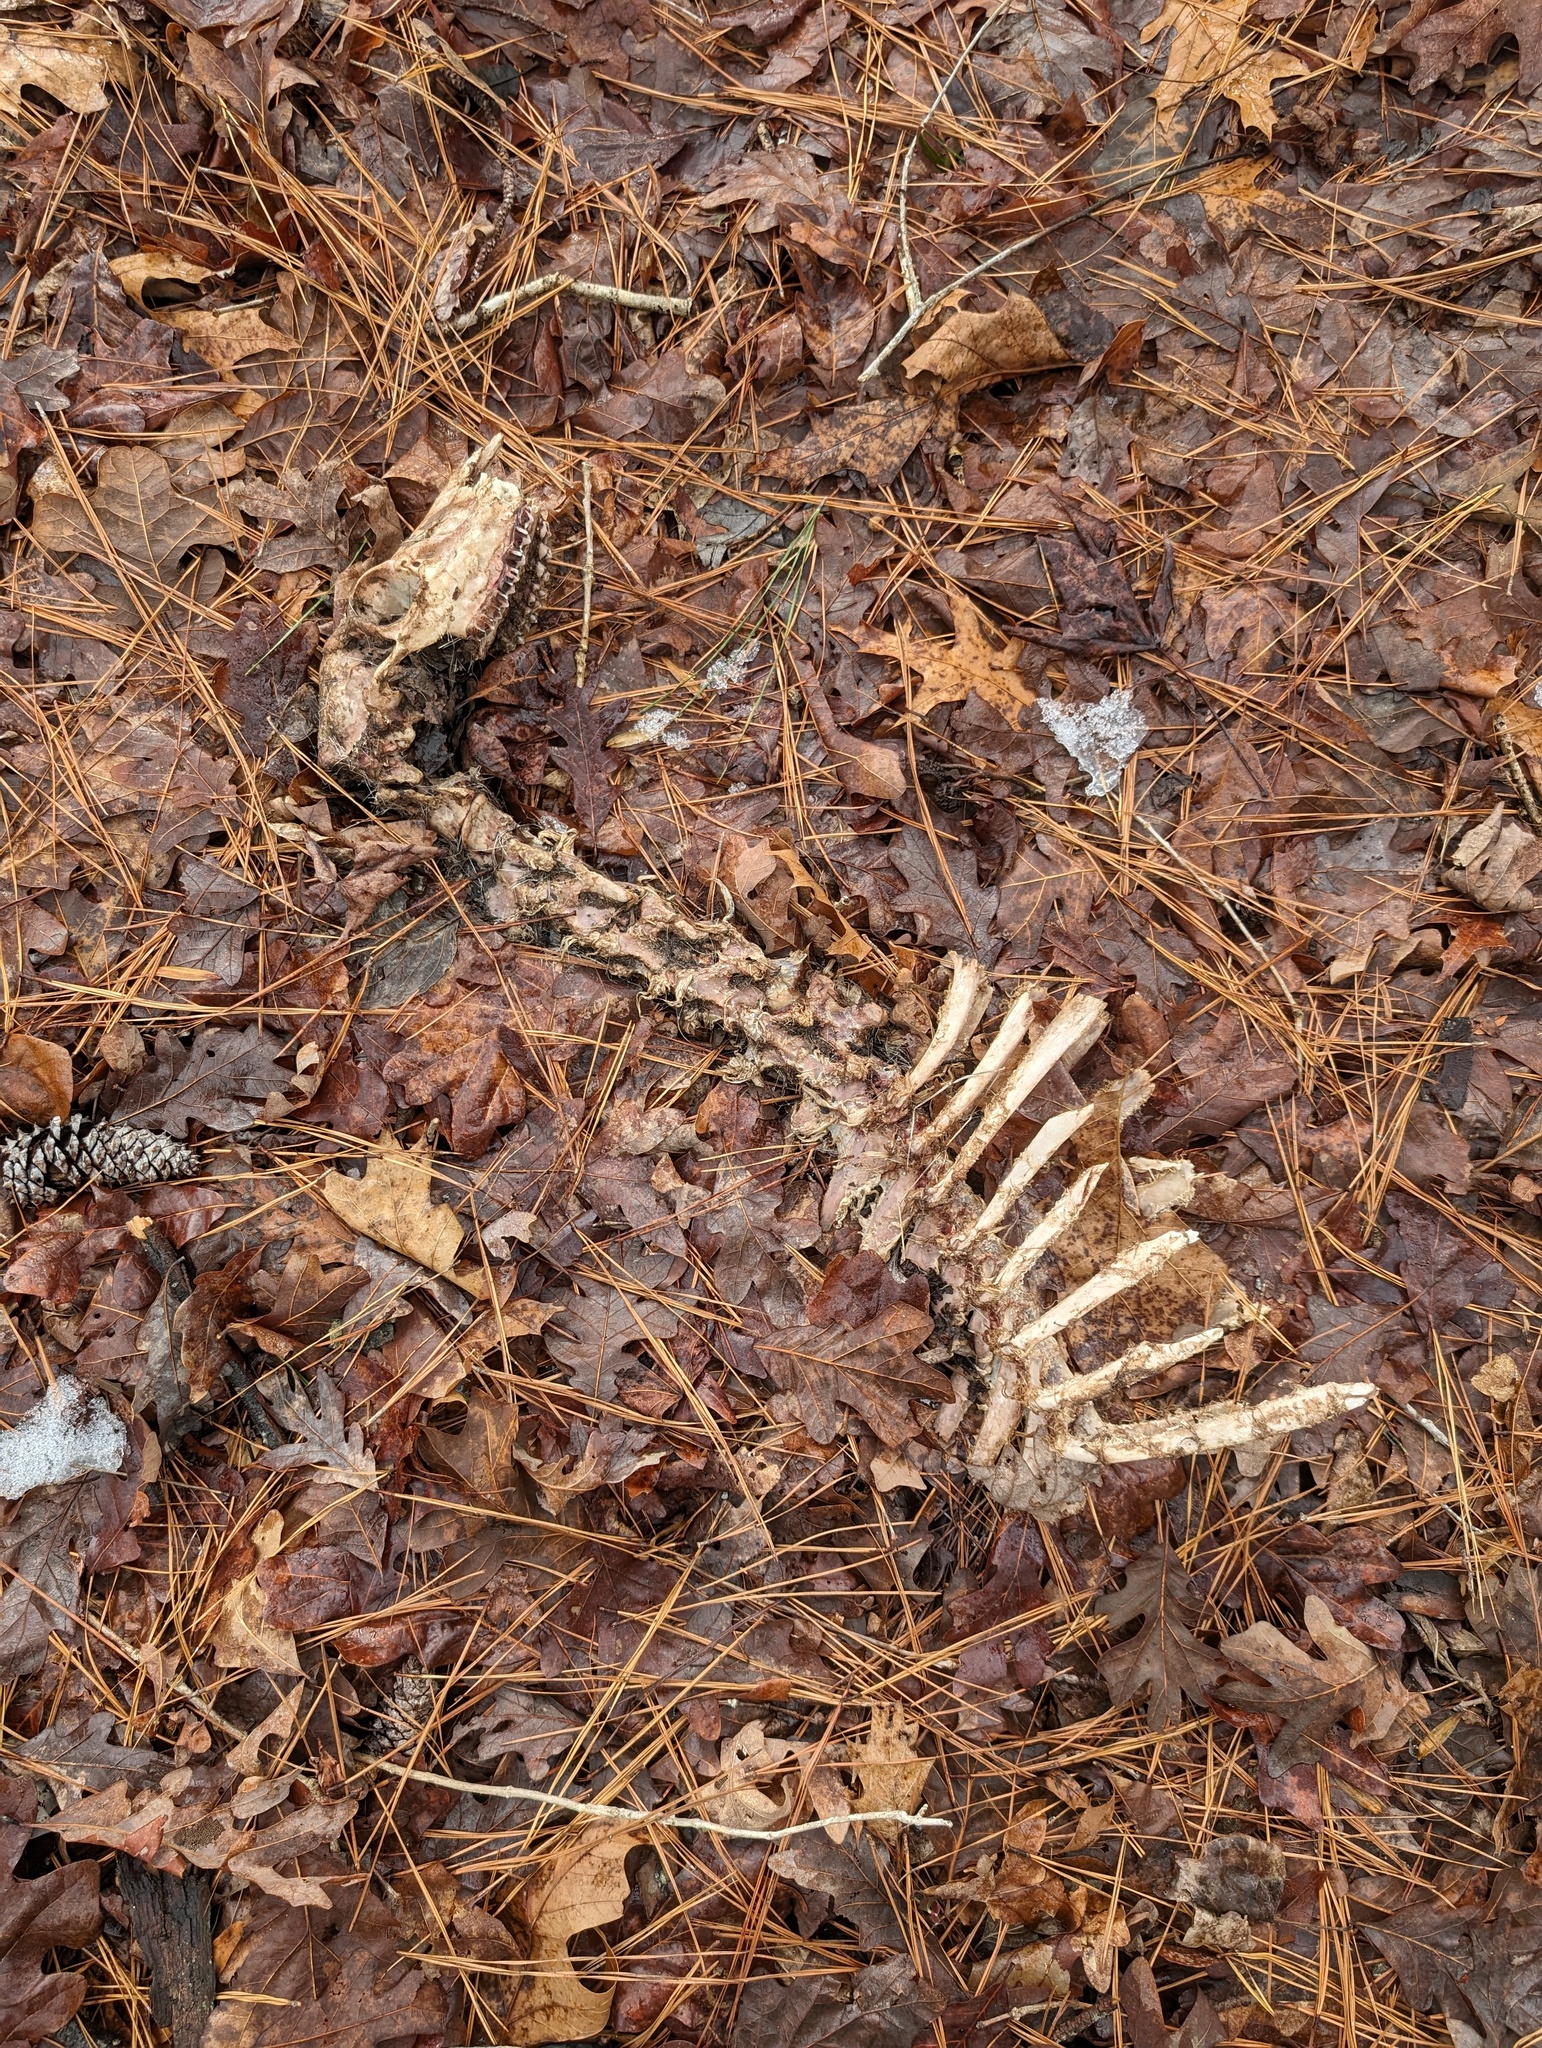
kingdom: Animalia
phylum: Chordata
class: Mammalia
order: Artiodactyla
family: Cervidae
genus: Odocoileus
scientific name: Odocoileus virginianus
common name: White-tailed deer
